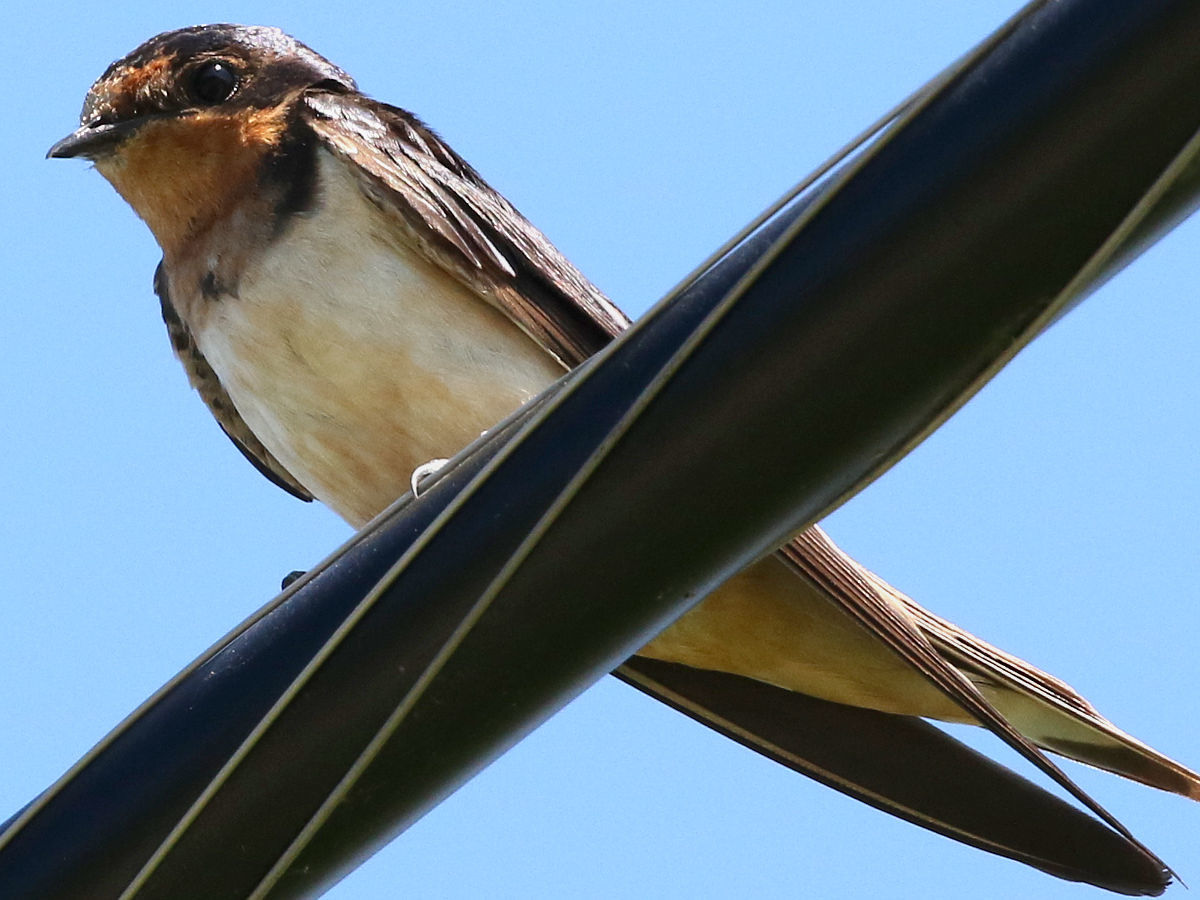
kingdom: Animalia
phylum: Chordata
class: Aves
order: Passeriformes
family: Hirundinidae
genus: Hirundo
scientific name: Hirundo rustica
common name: Barn swallow
